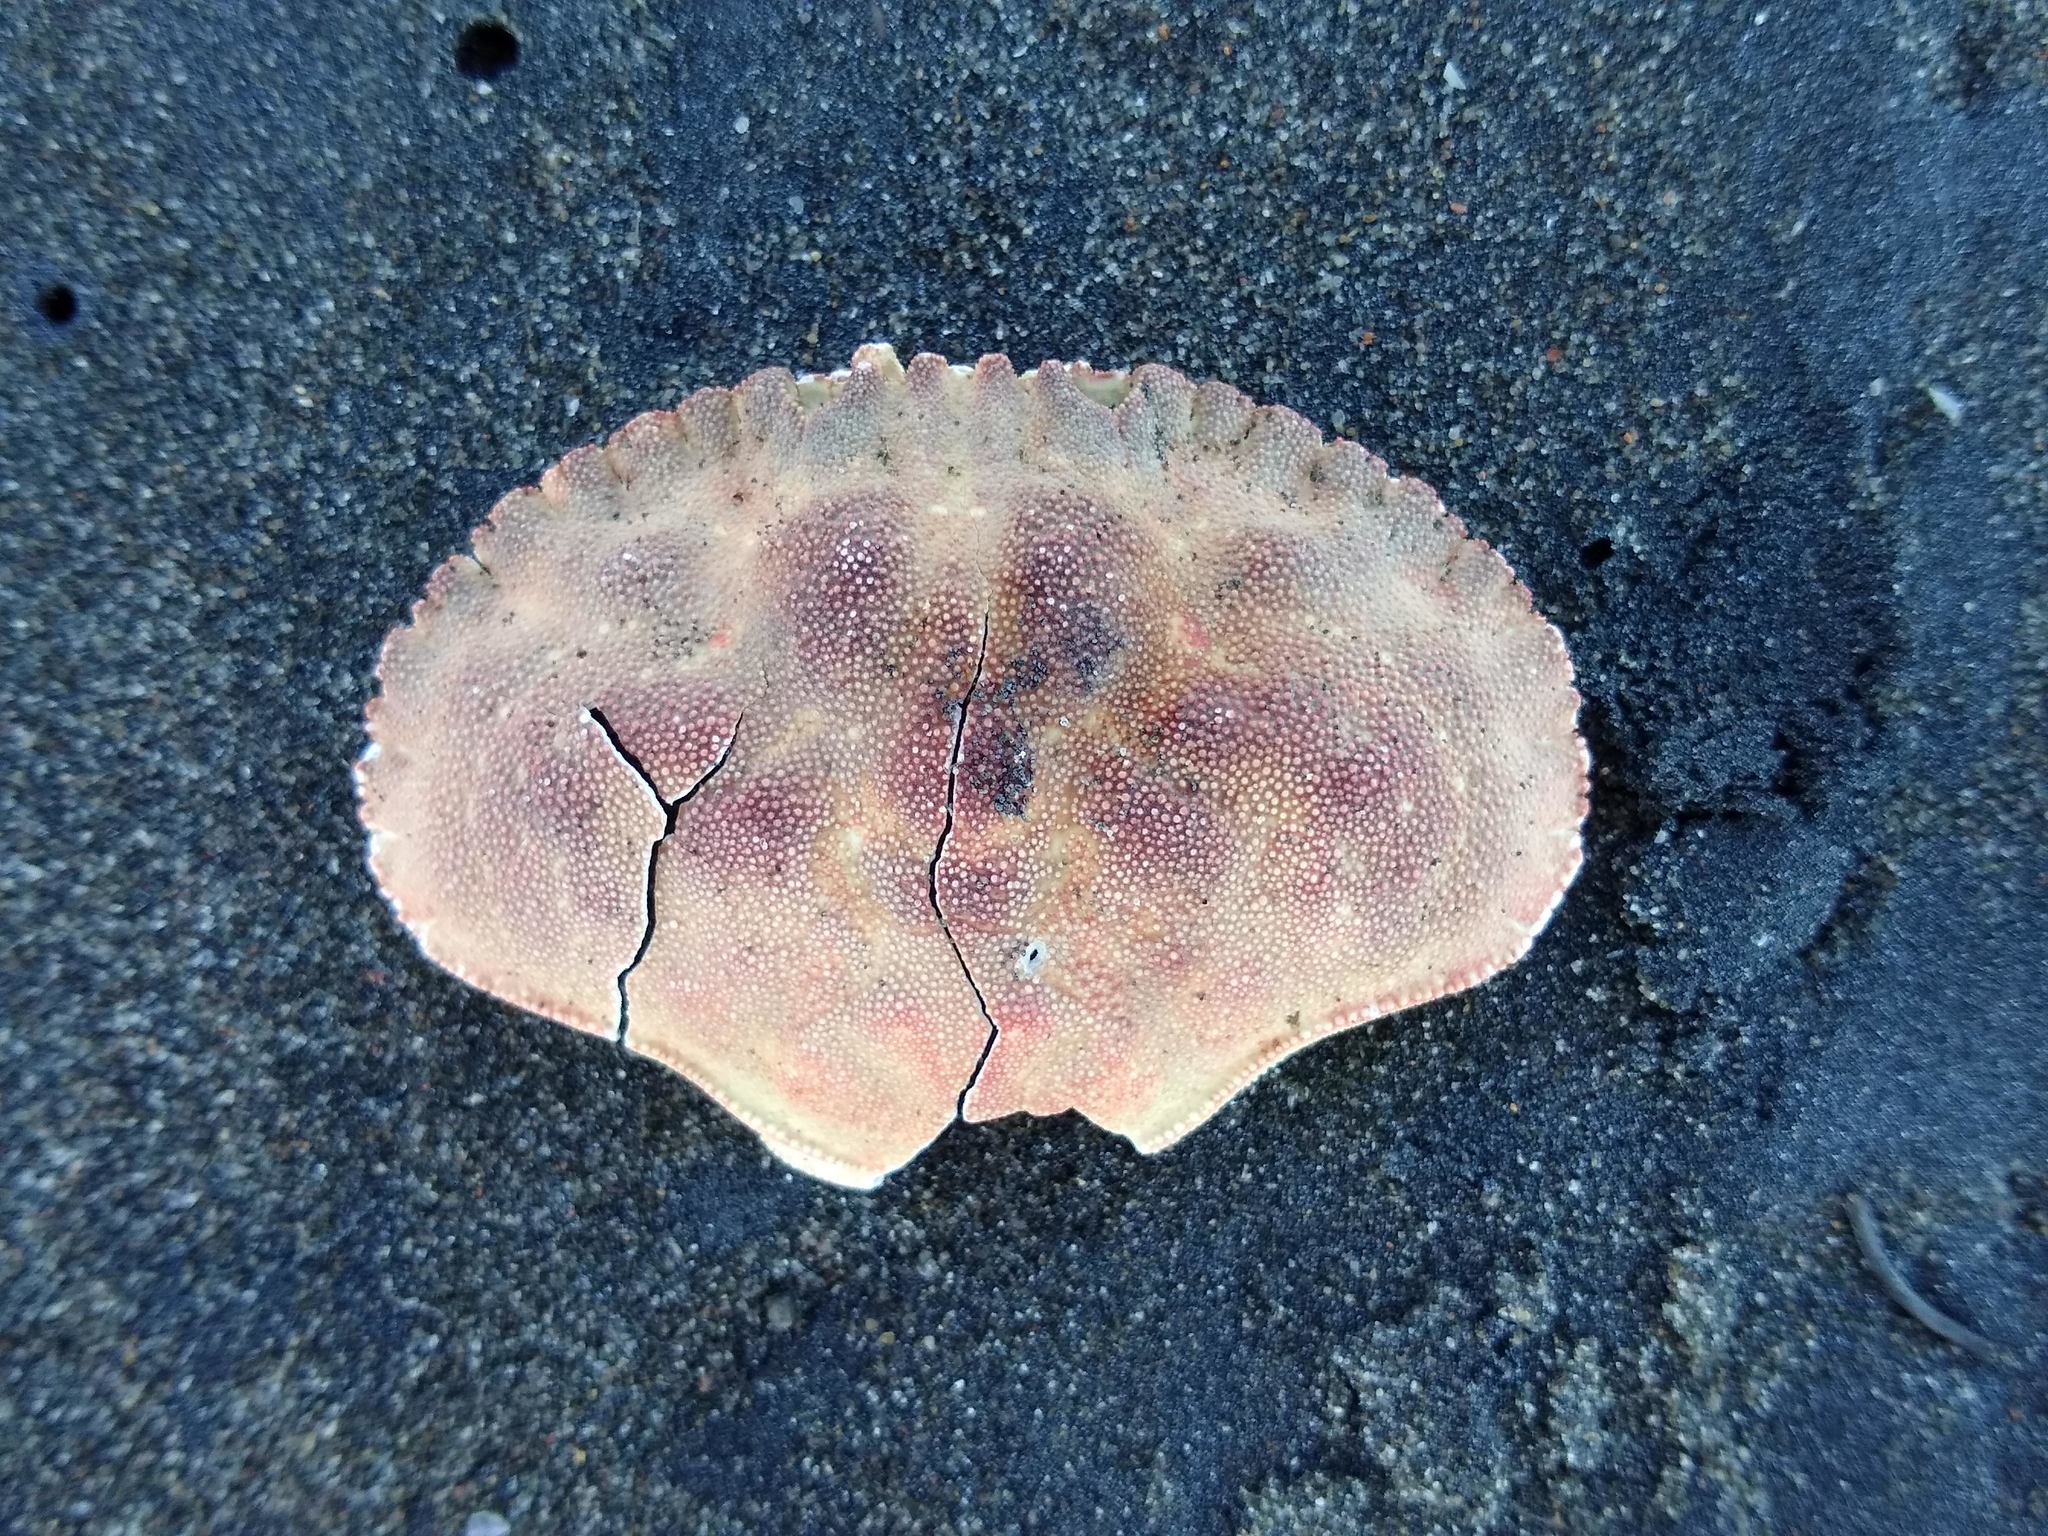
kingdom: Animalia
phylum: Arthropoda
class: Malacostraca
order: Decapoda
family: Cancridae
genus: Metacarcinus
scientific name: Metacarcinus novaezelandiae
